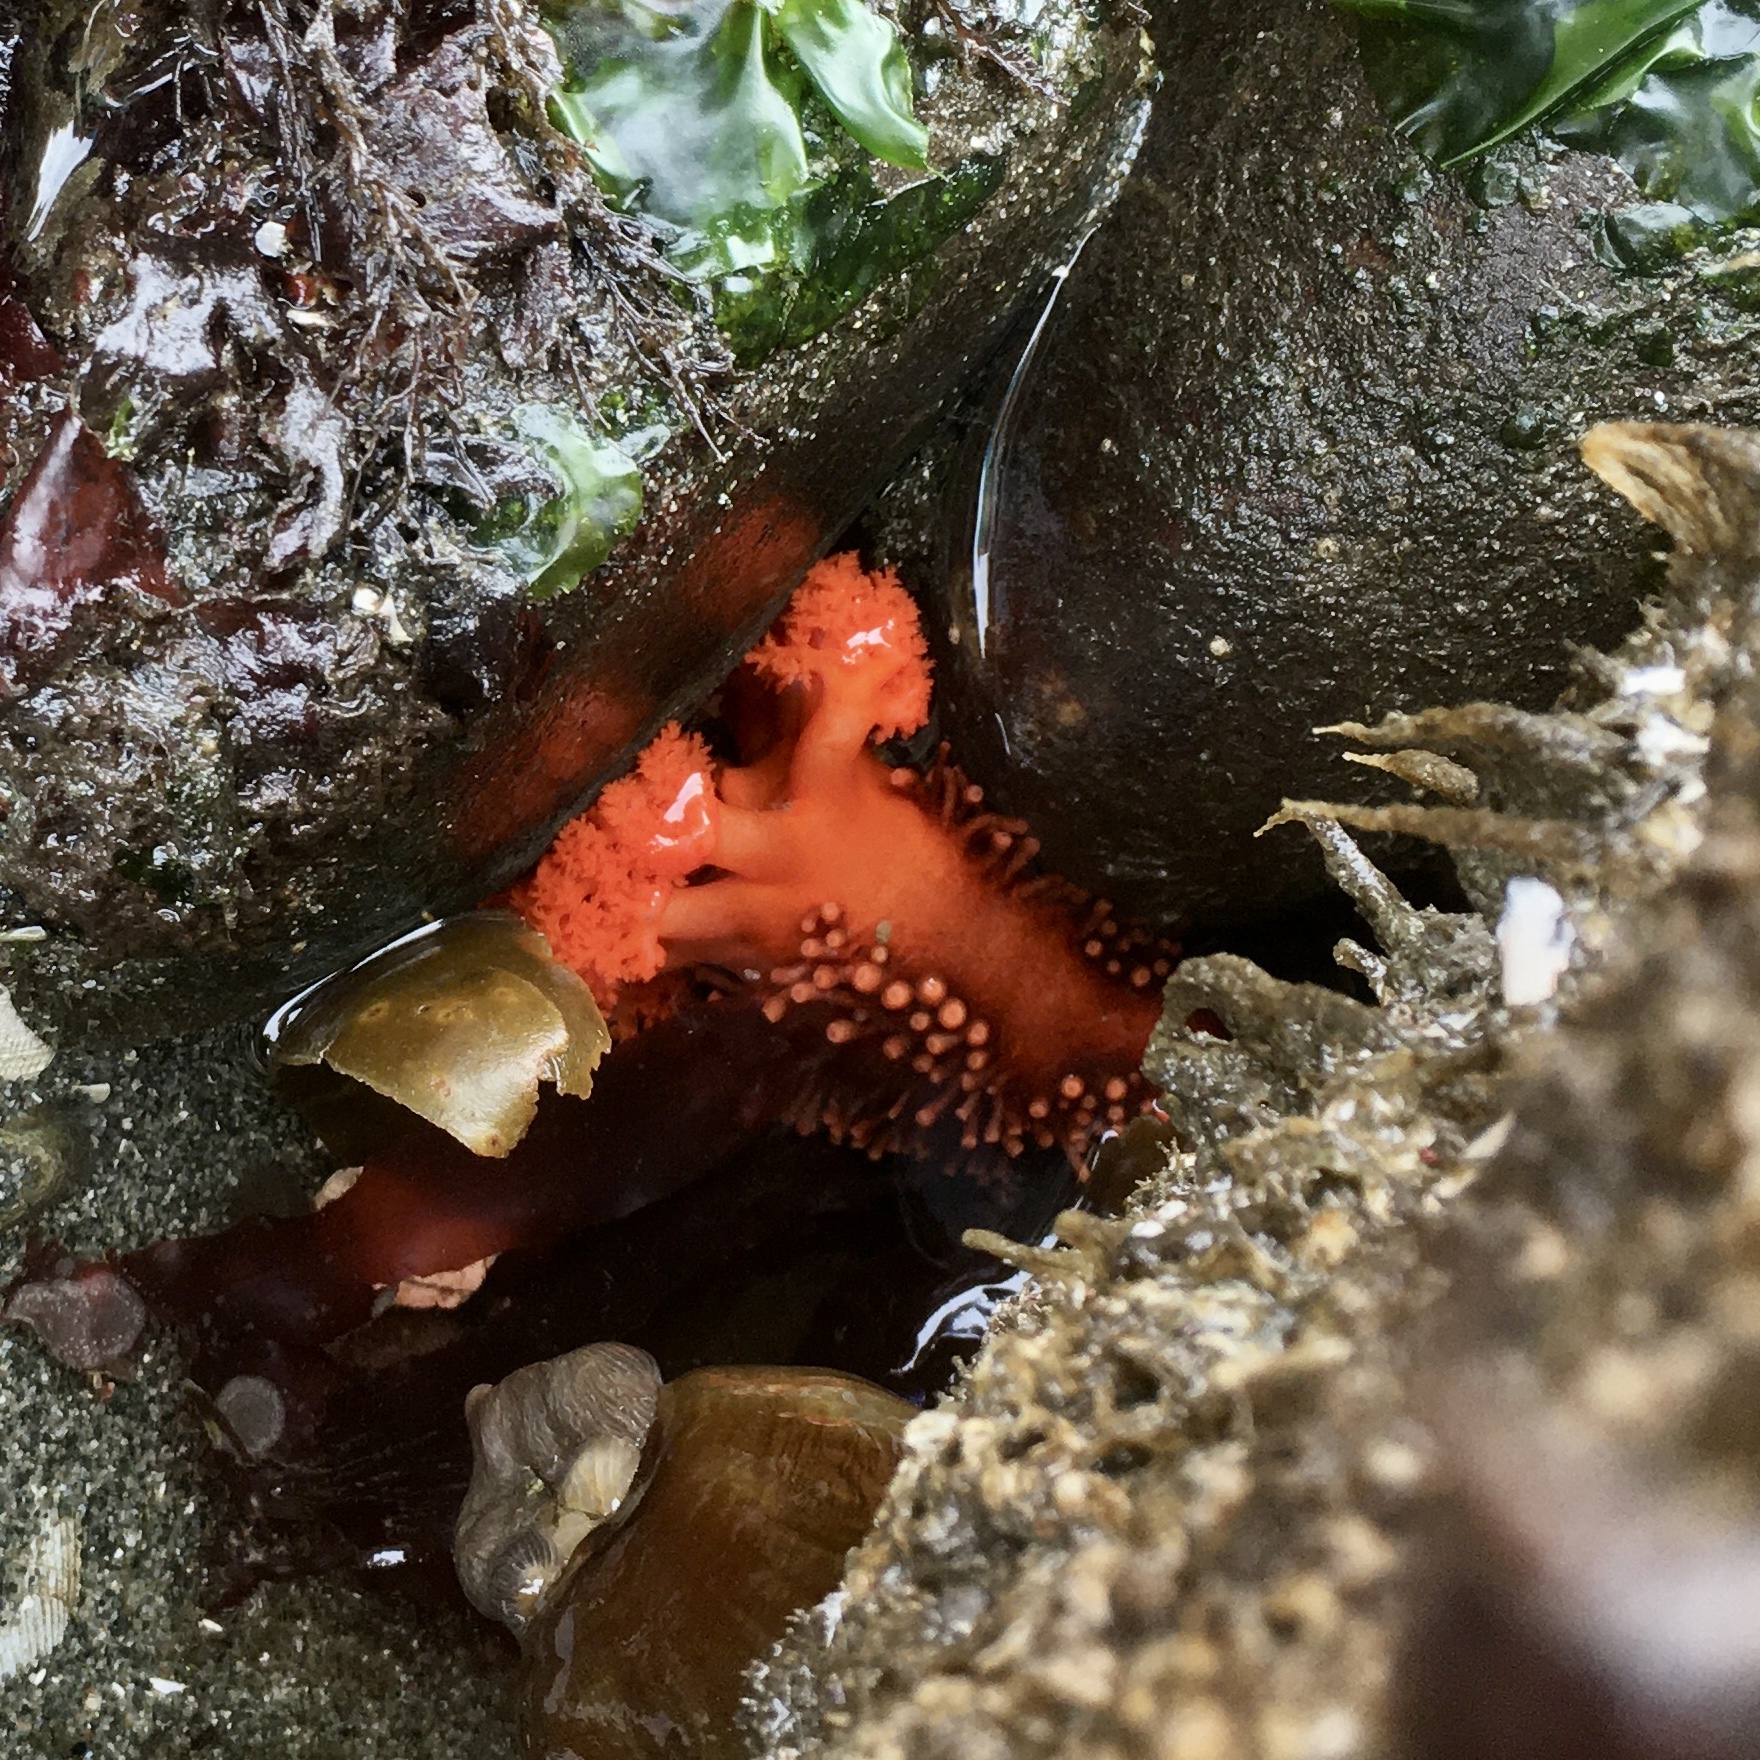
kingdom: Animalia
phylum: Echinodermata
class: Holothuroidea
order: Dendrochirotida
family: Cucumariidae
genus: Cucumaria
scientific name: Cucumaria miniata
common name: Orange sea cucumber
